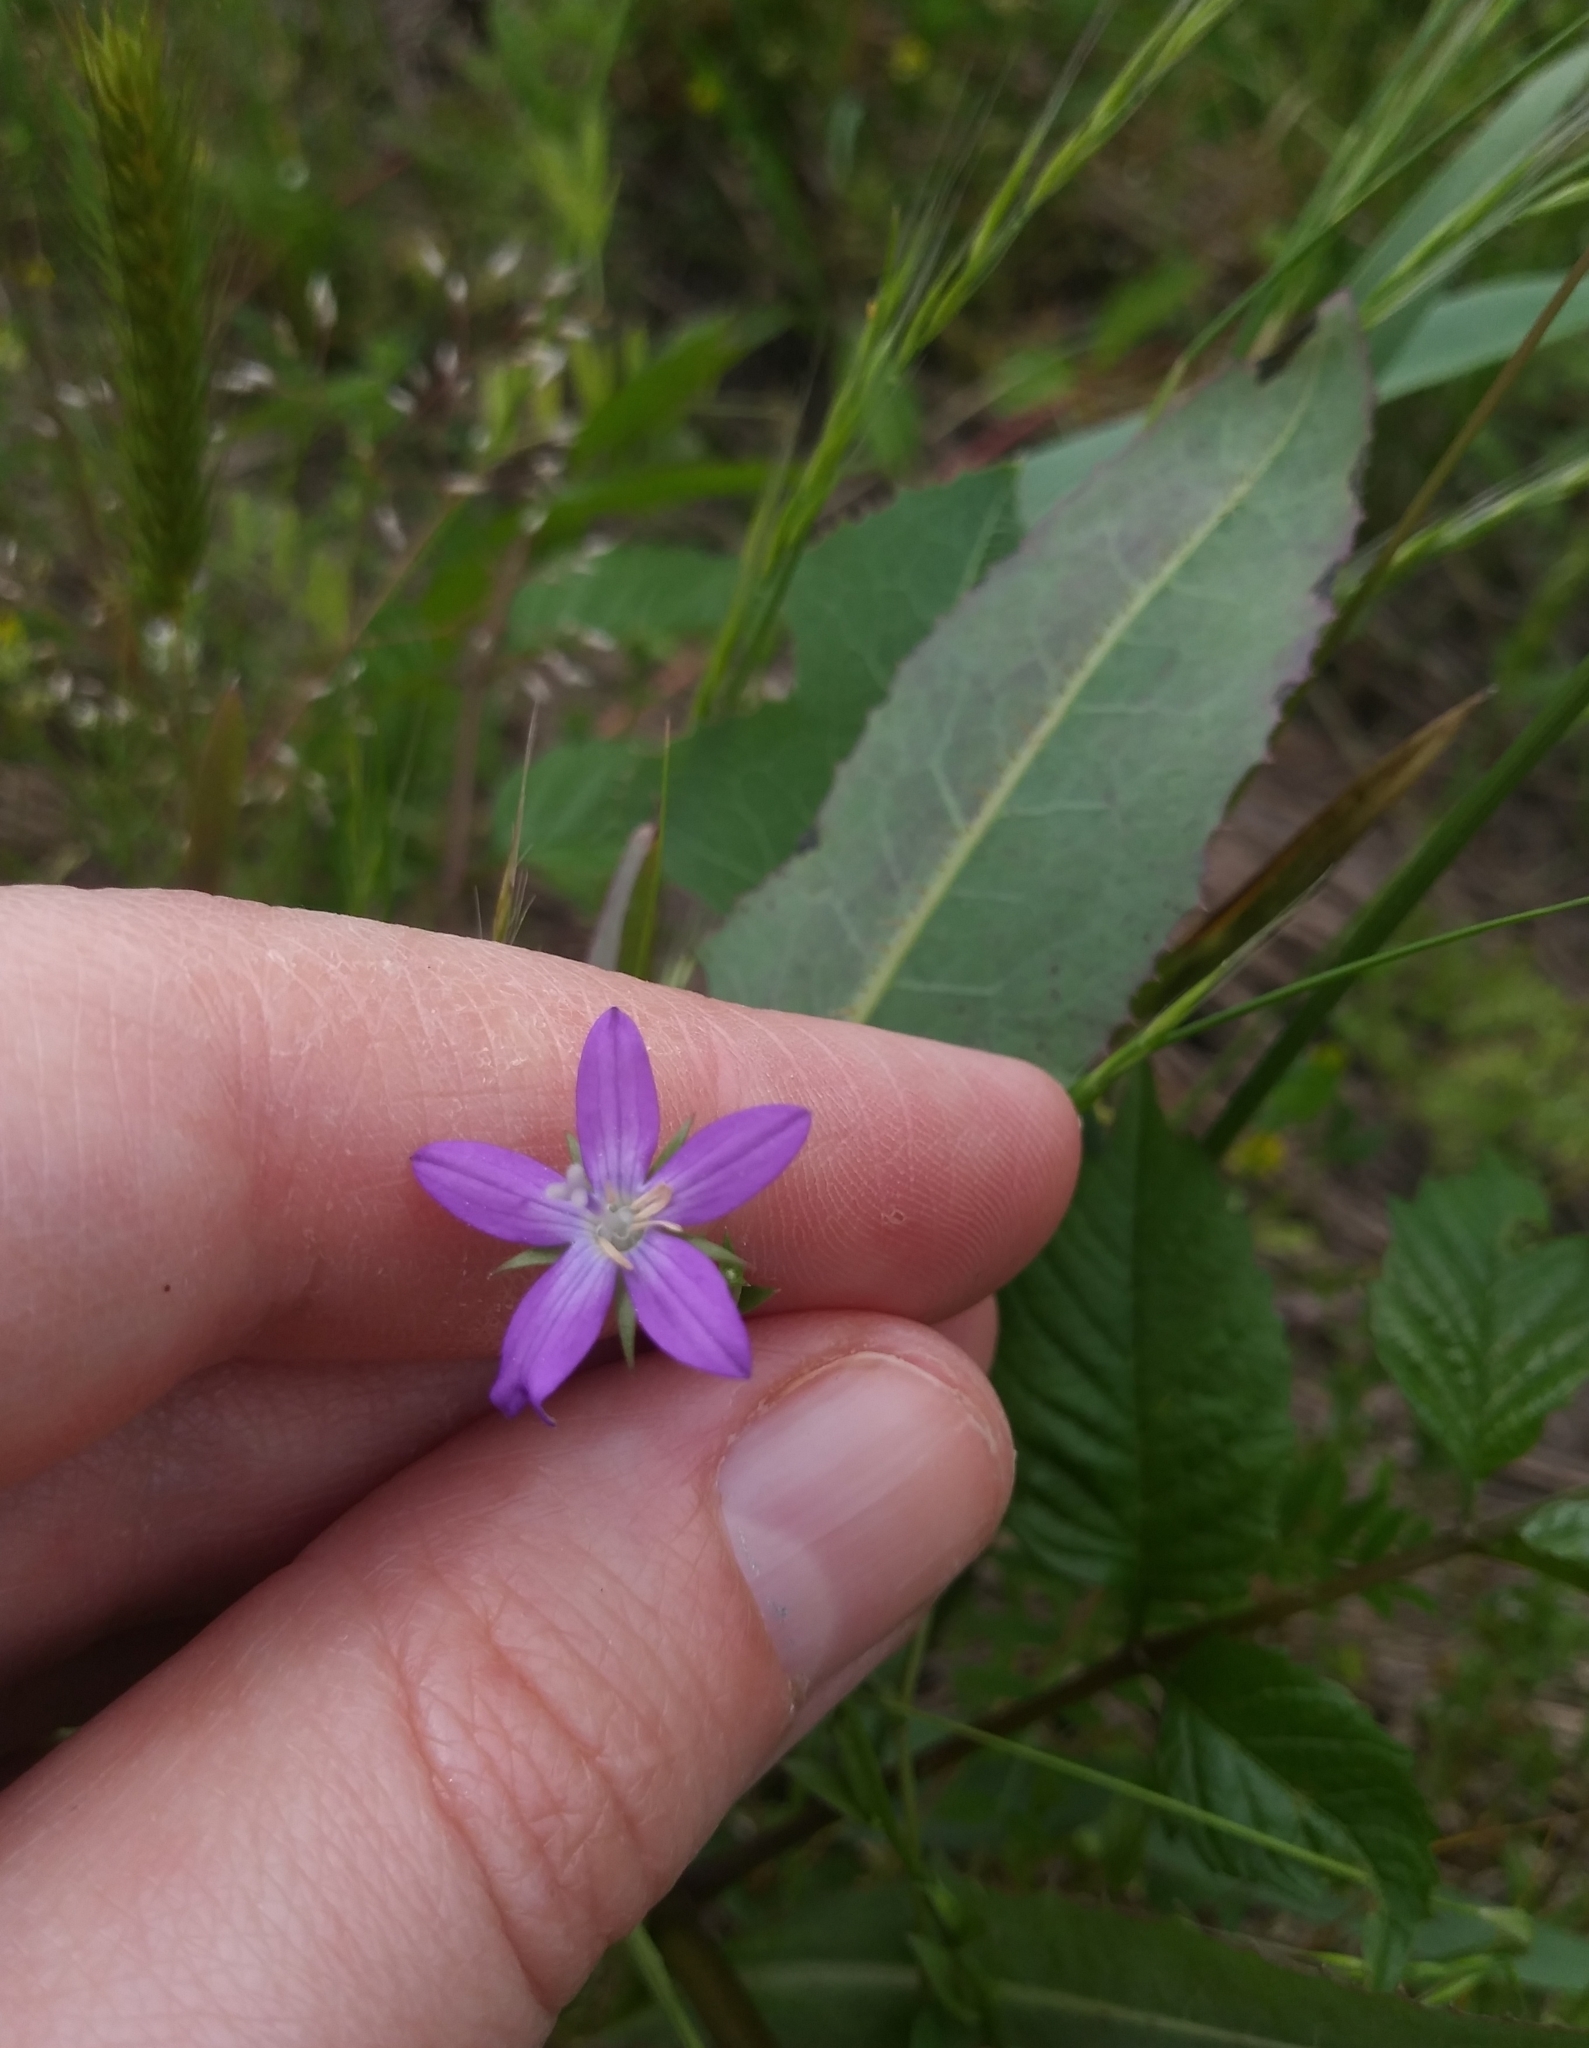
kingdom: Plantae
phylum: Tracheophyta
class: Magnoliopsida
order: Asterales
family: Campanulaceae
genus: Triodanis
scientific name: Triodanis perfoliata
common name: Clasping venus' looking-glass
